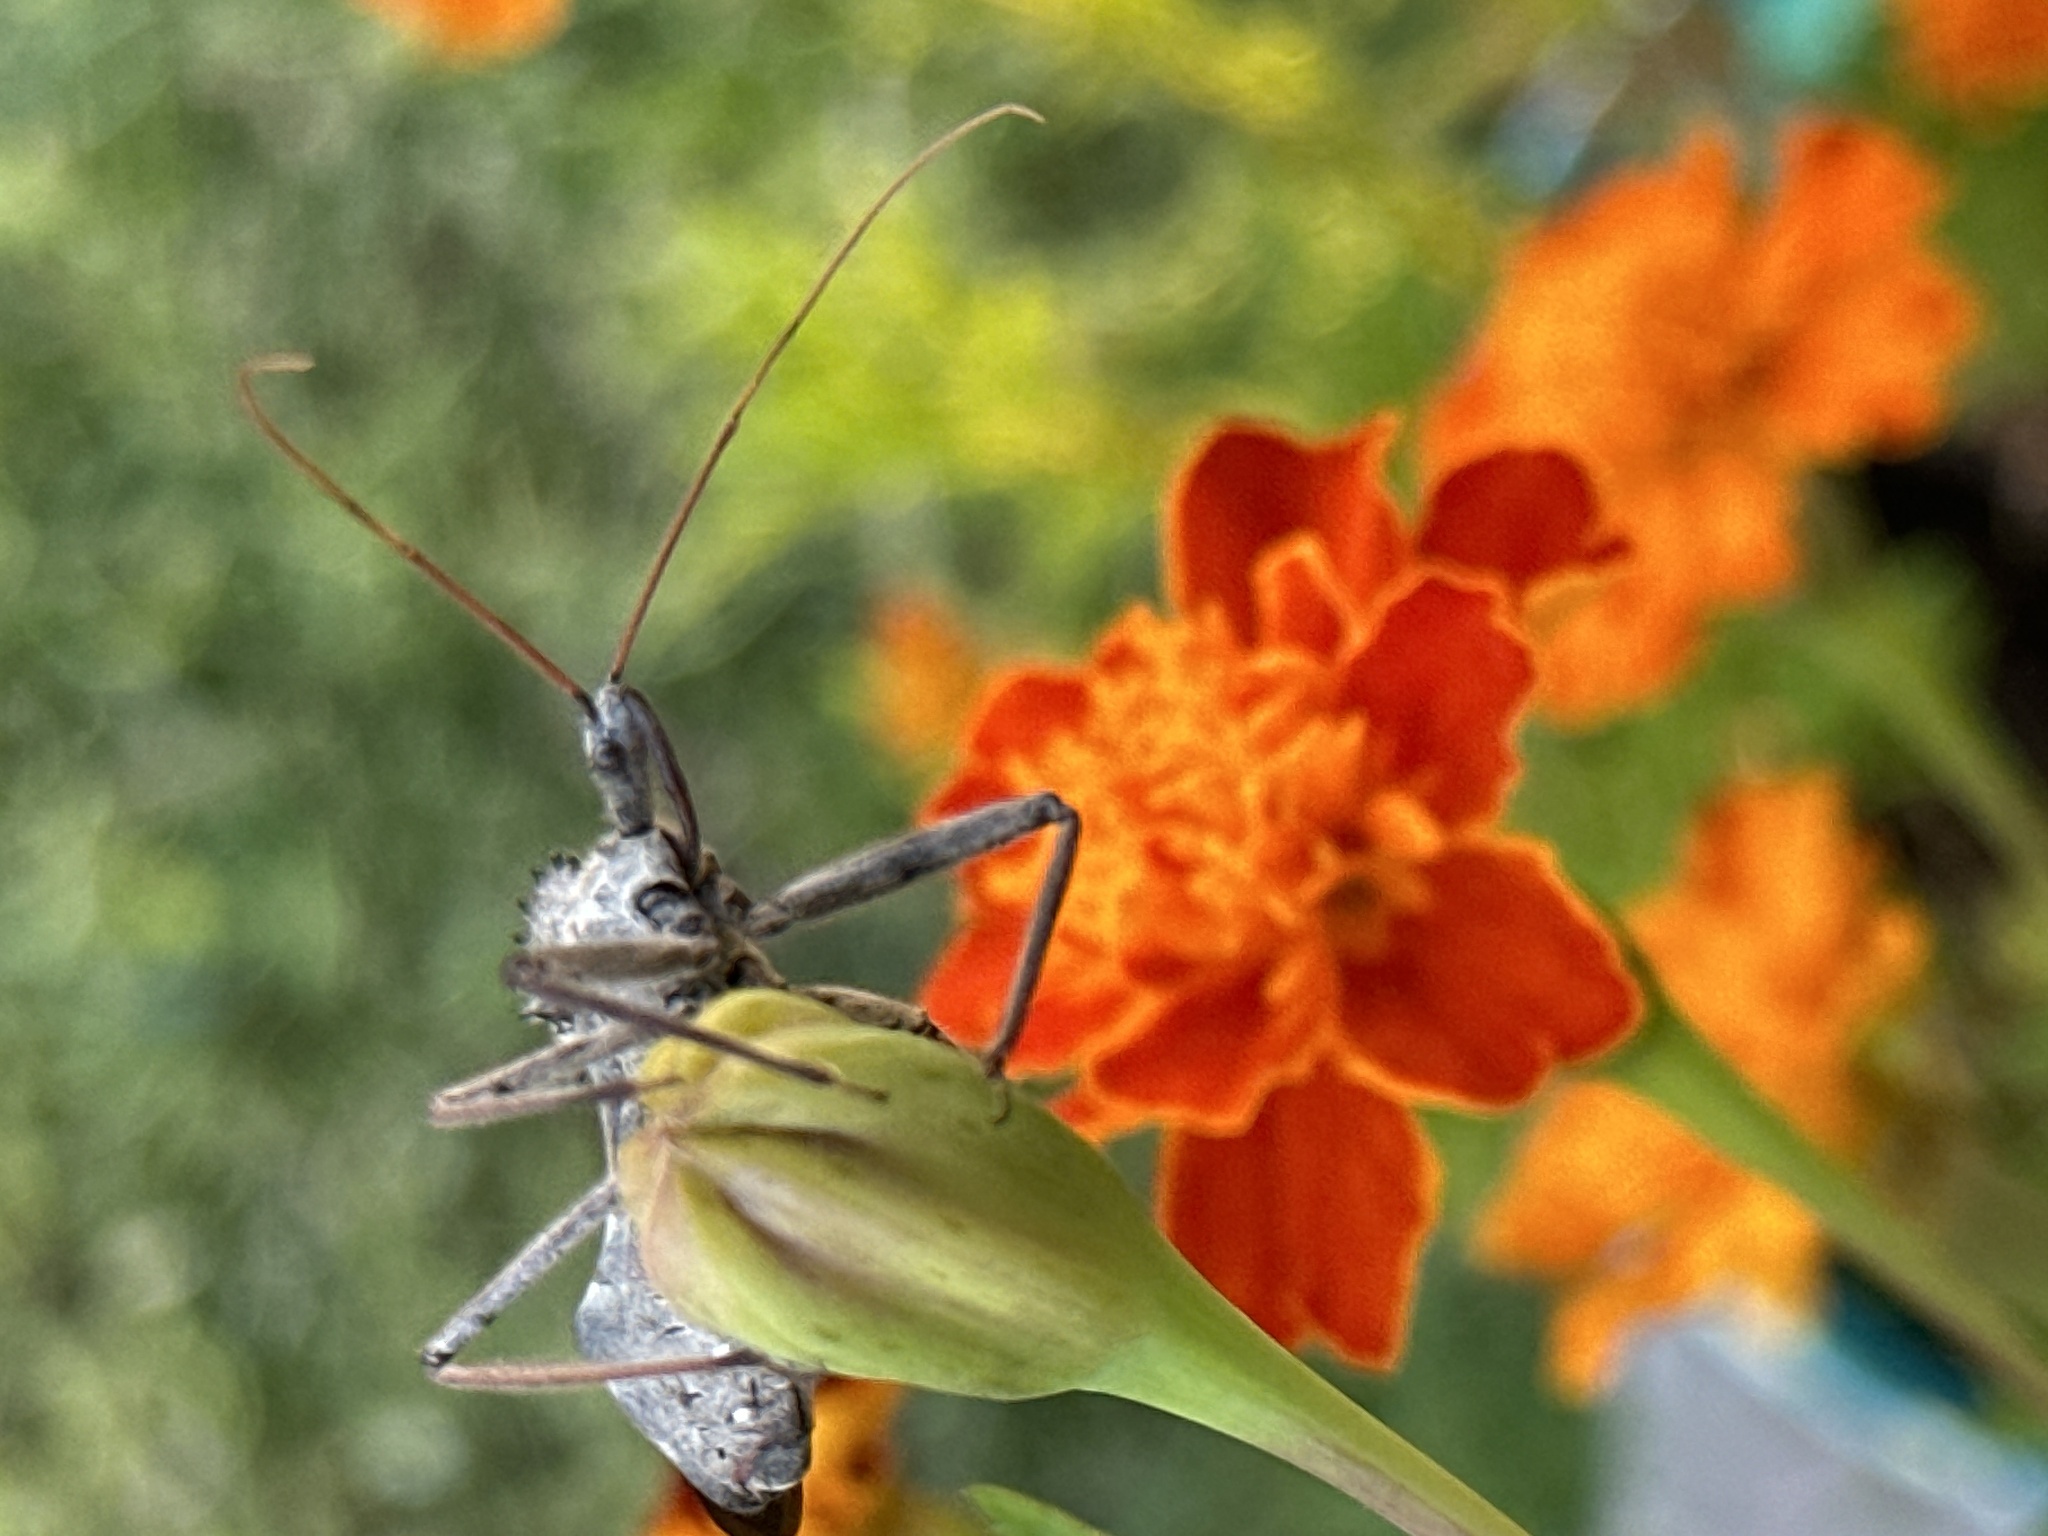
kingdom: Animalia
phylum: Arthropoda
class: Insecta
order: Hemiptera
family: Reduviidae
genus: Arilus
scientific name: Arilus cristatus
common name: North american wheel bug
